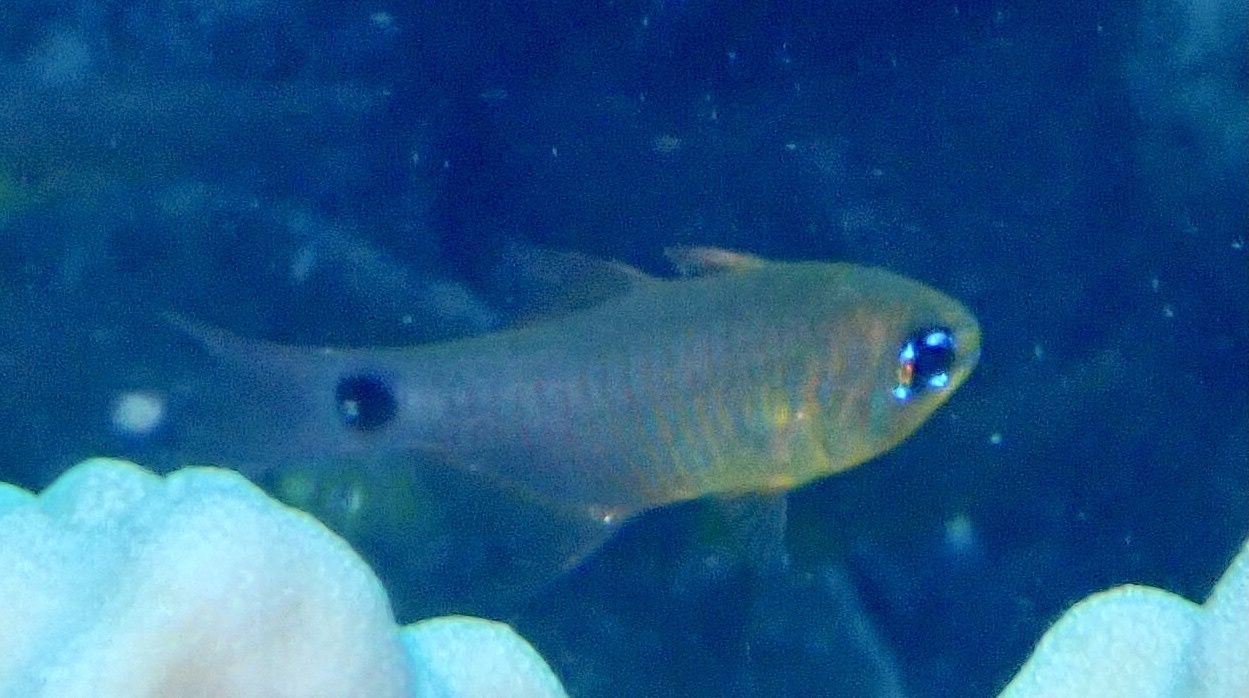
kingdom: Animalia
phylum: Chordata
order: Perciformes
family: Apogonidae
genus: Taeniamia
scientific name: Taeniamia fucata
